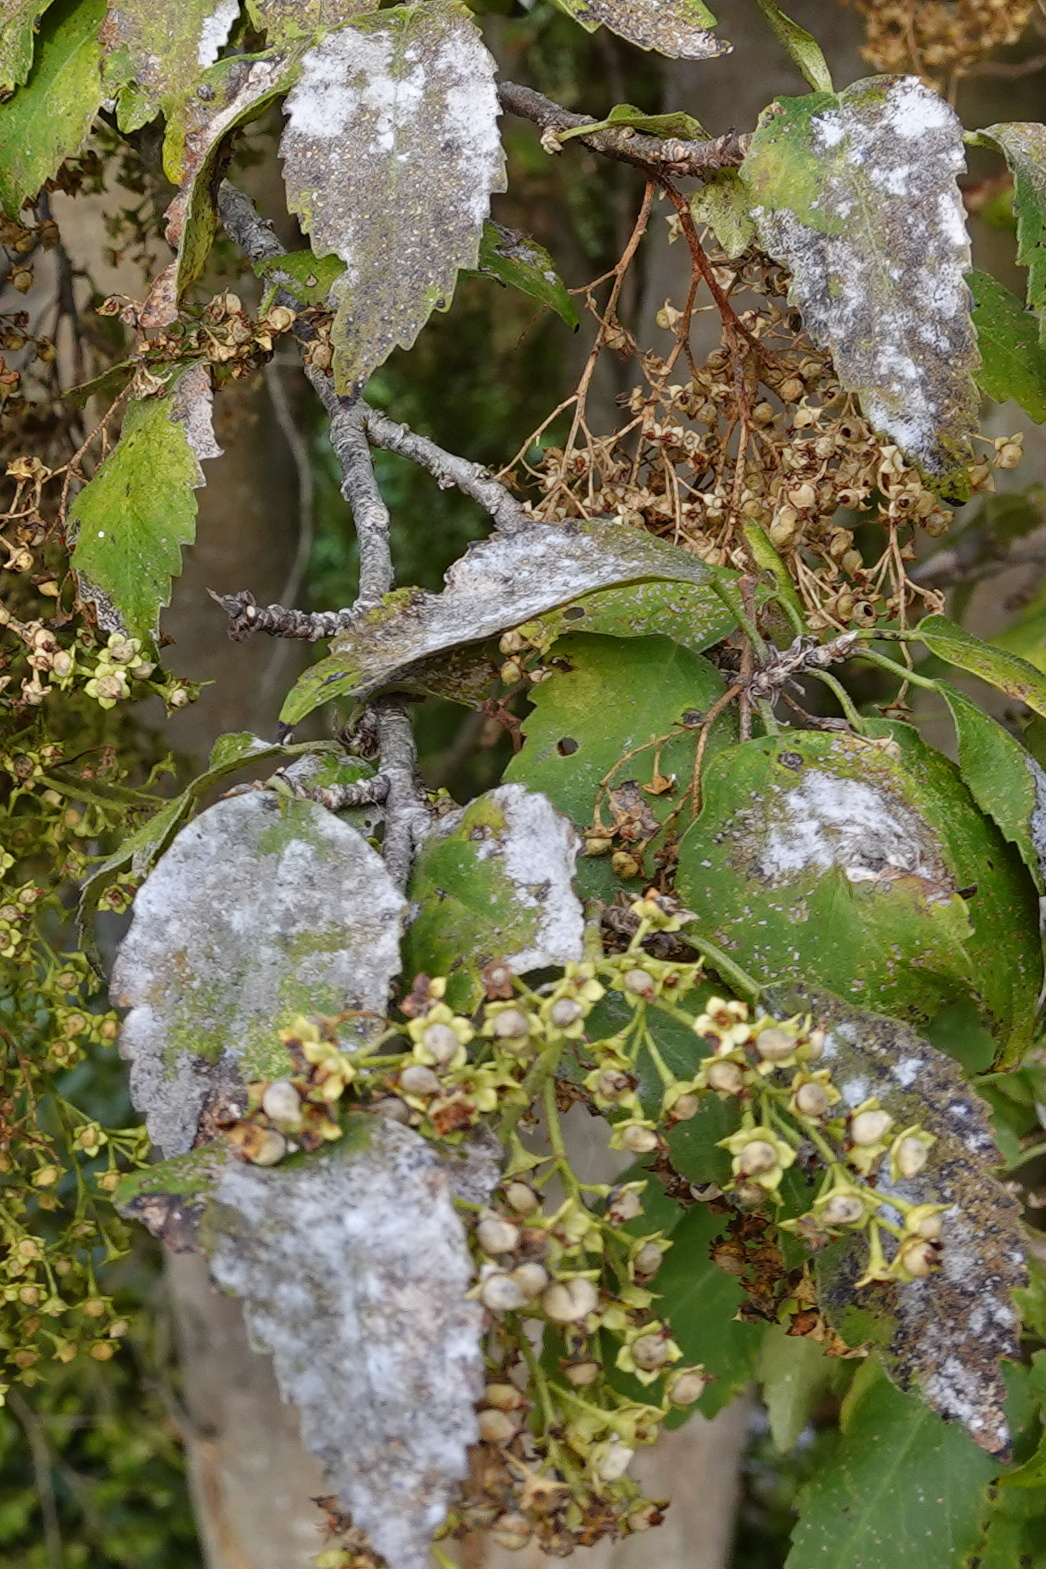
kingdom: Fungi
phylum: Ascomycota
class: Leotiomycetes
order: Helotiales
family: Erysiphaceae
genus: Podosphaera
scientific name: Podosphaera fusca
